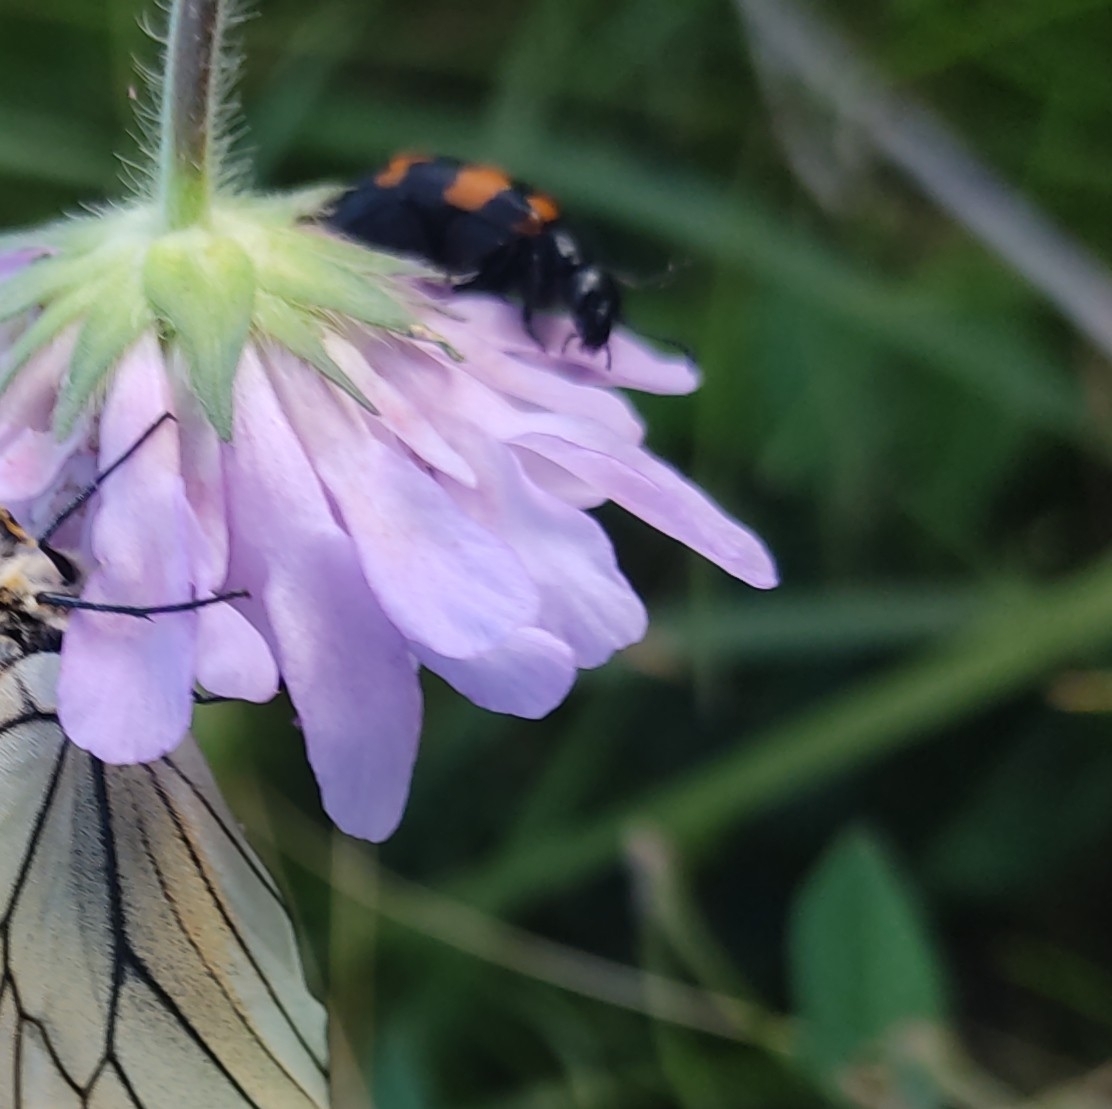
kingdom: Animalia
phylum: Arthropoda
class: Insecta
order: Coleoptera
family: Meloidae
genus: Mylabris
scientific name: Mylabris variabilis
